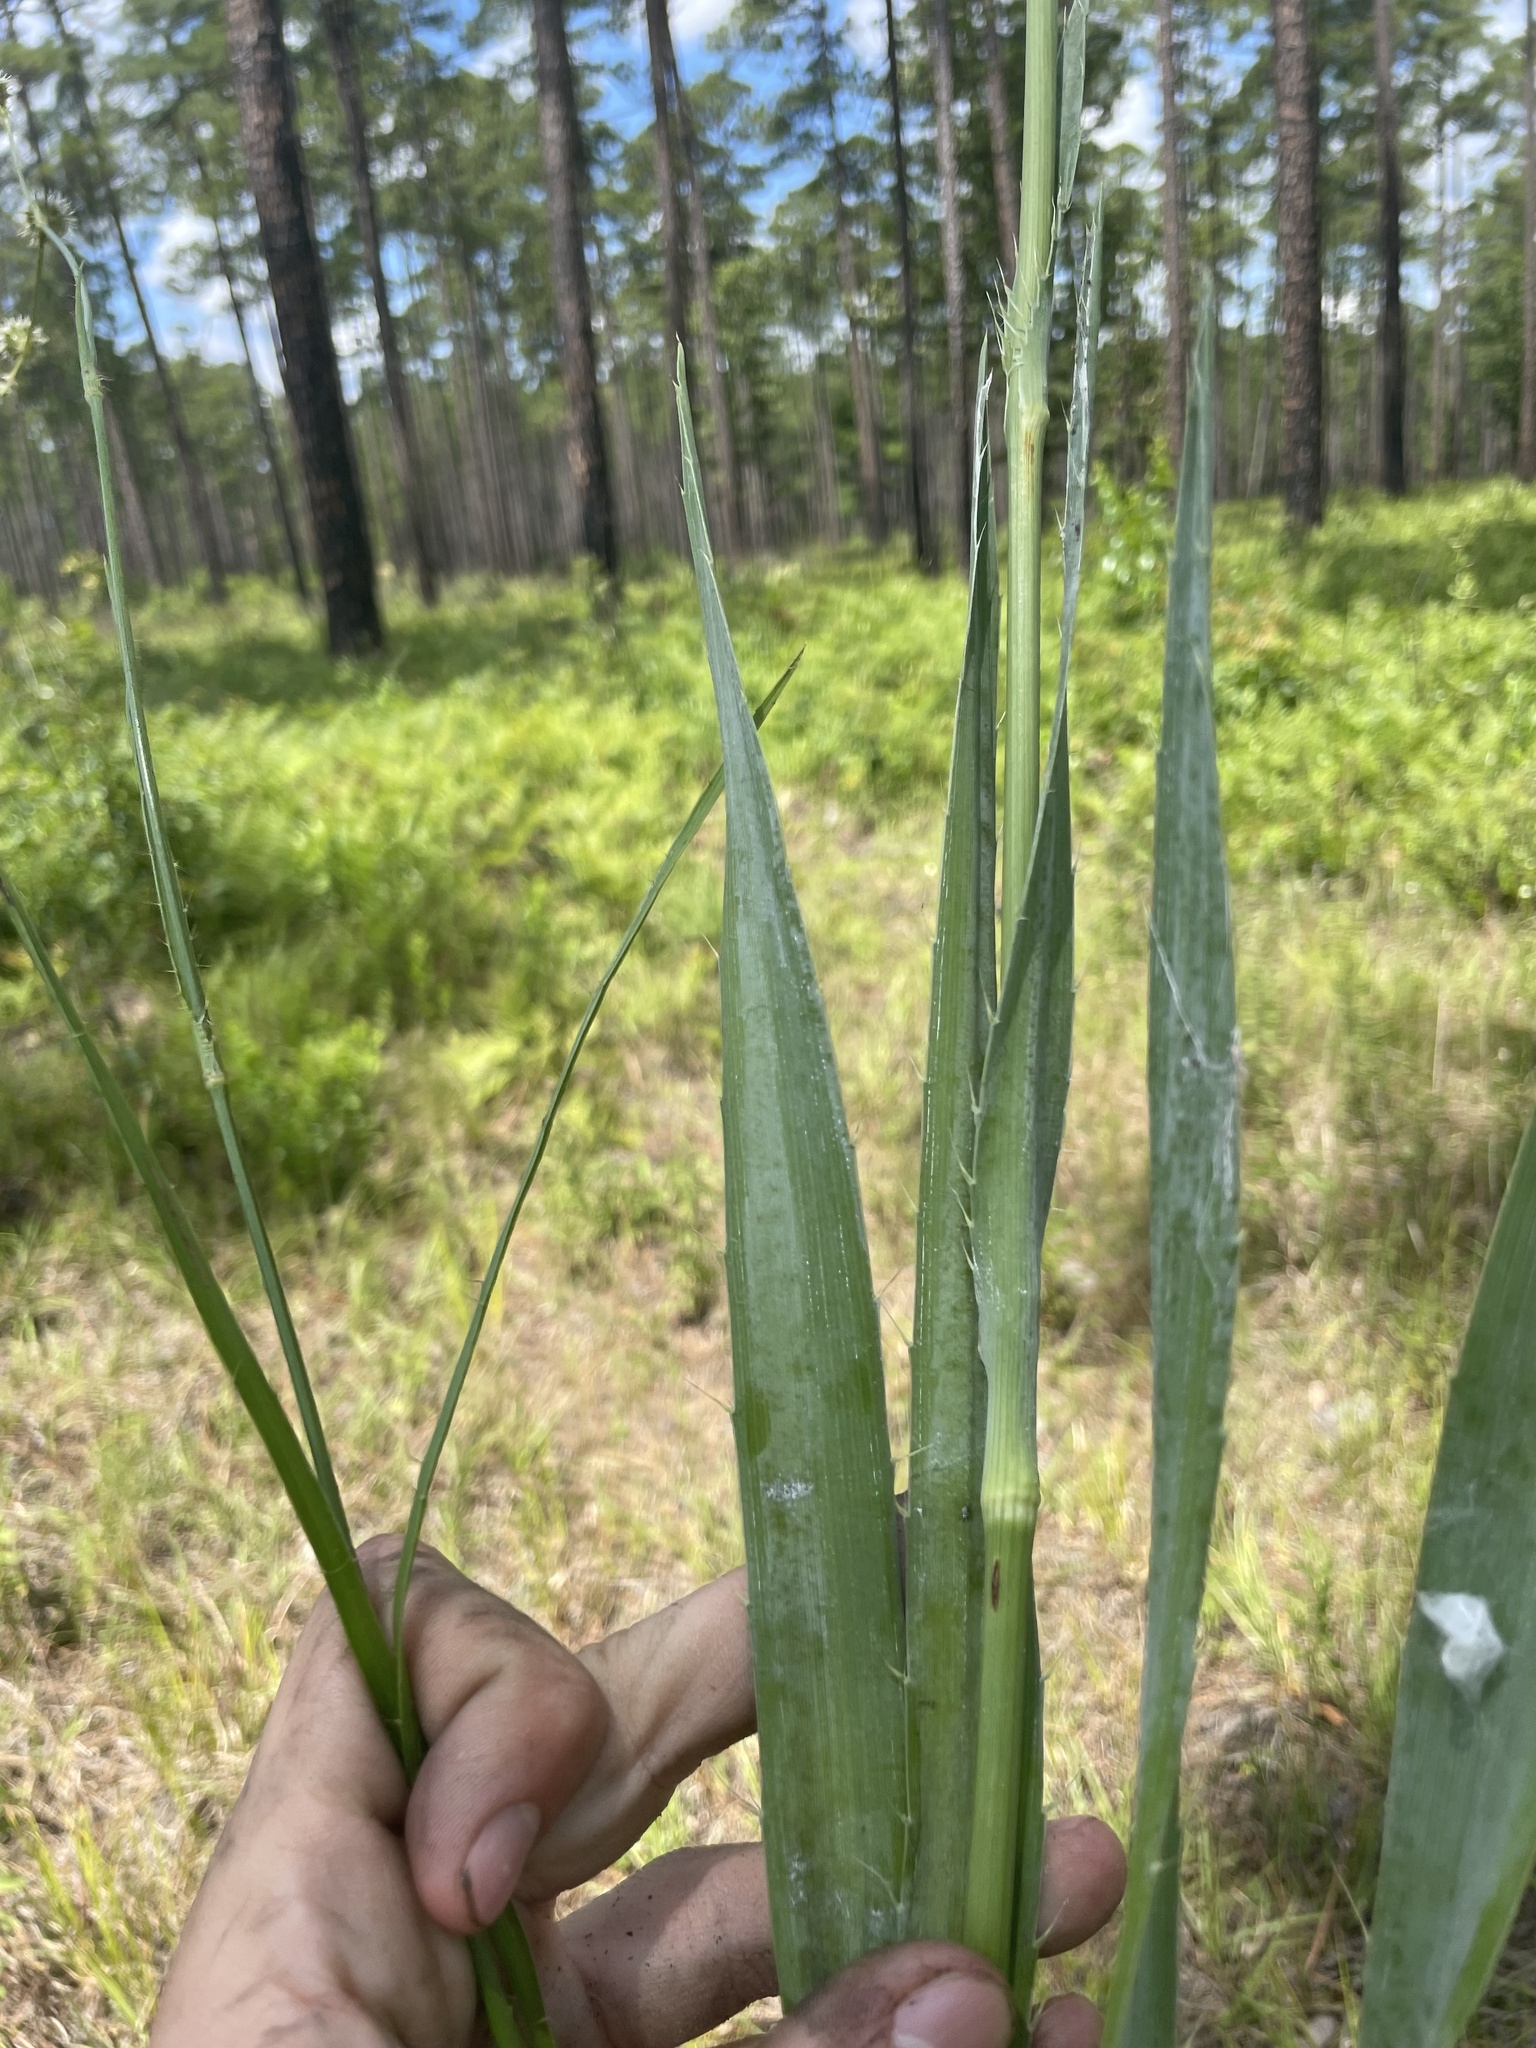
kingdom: Plantae
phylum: Tracheophyta
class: Magnoliopsida
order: Apiales
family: Apiaceae
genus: Eryngium
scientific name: Eryngium yuccifolium
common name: Button eryngo
